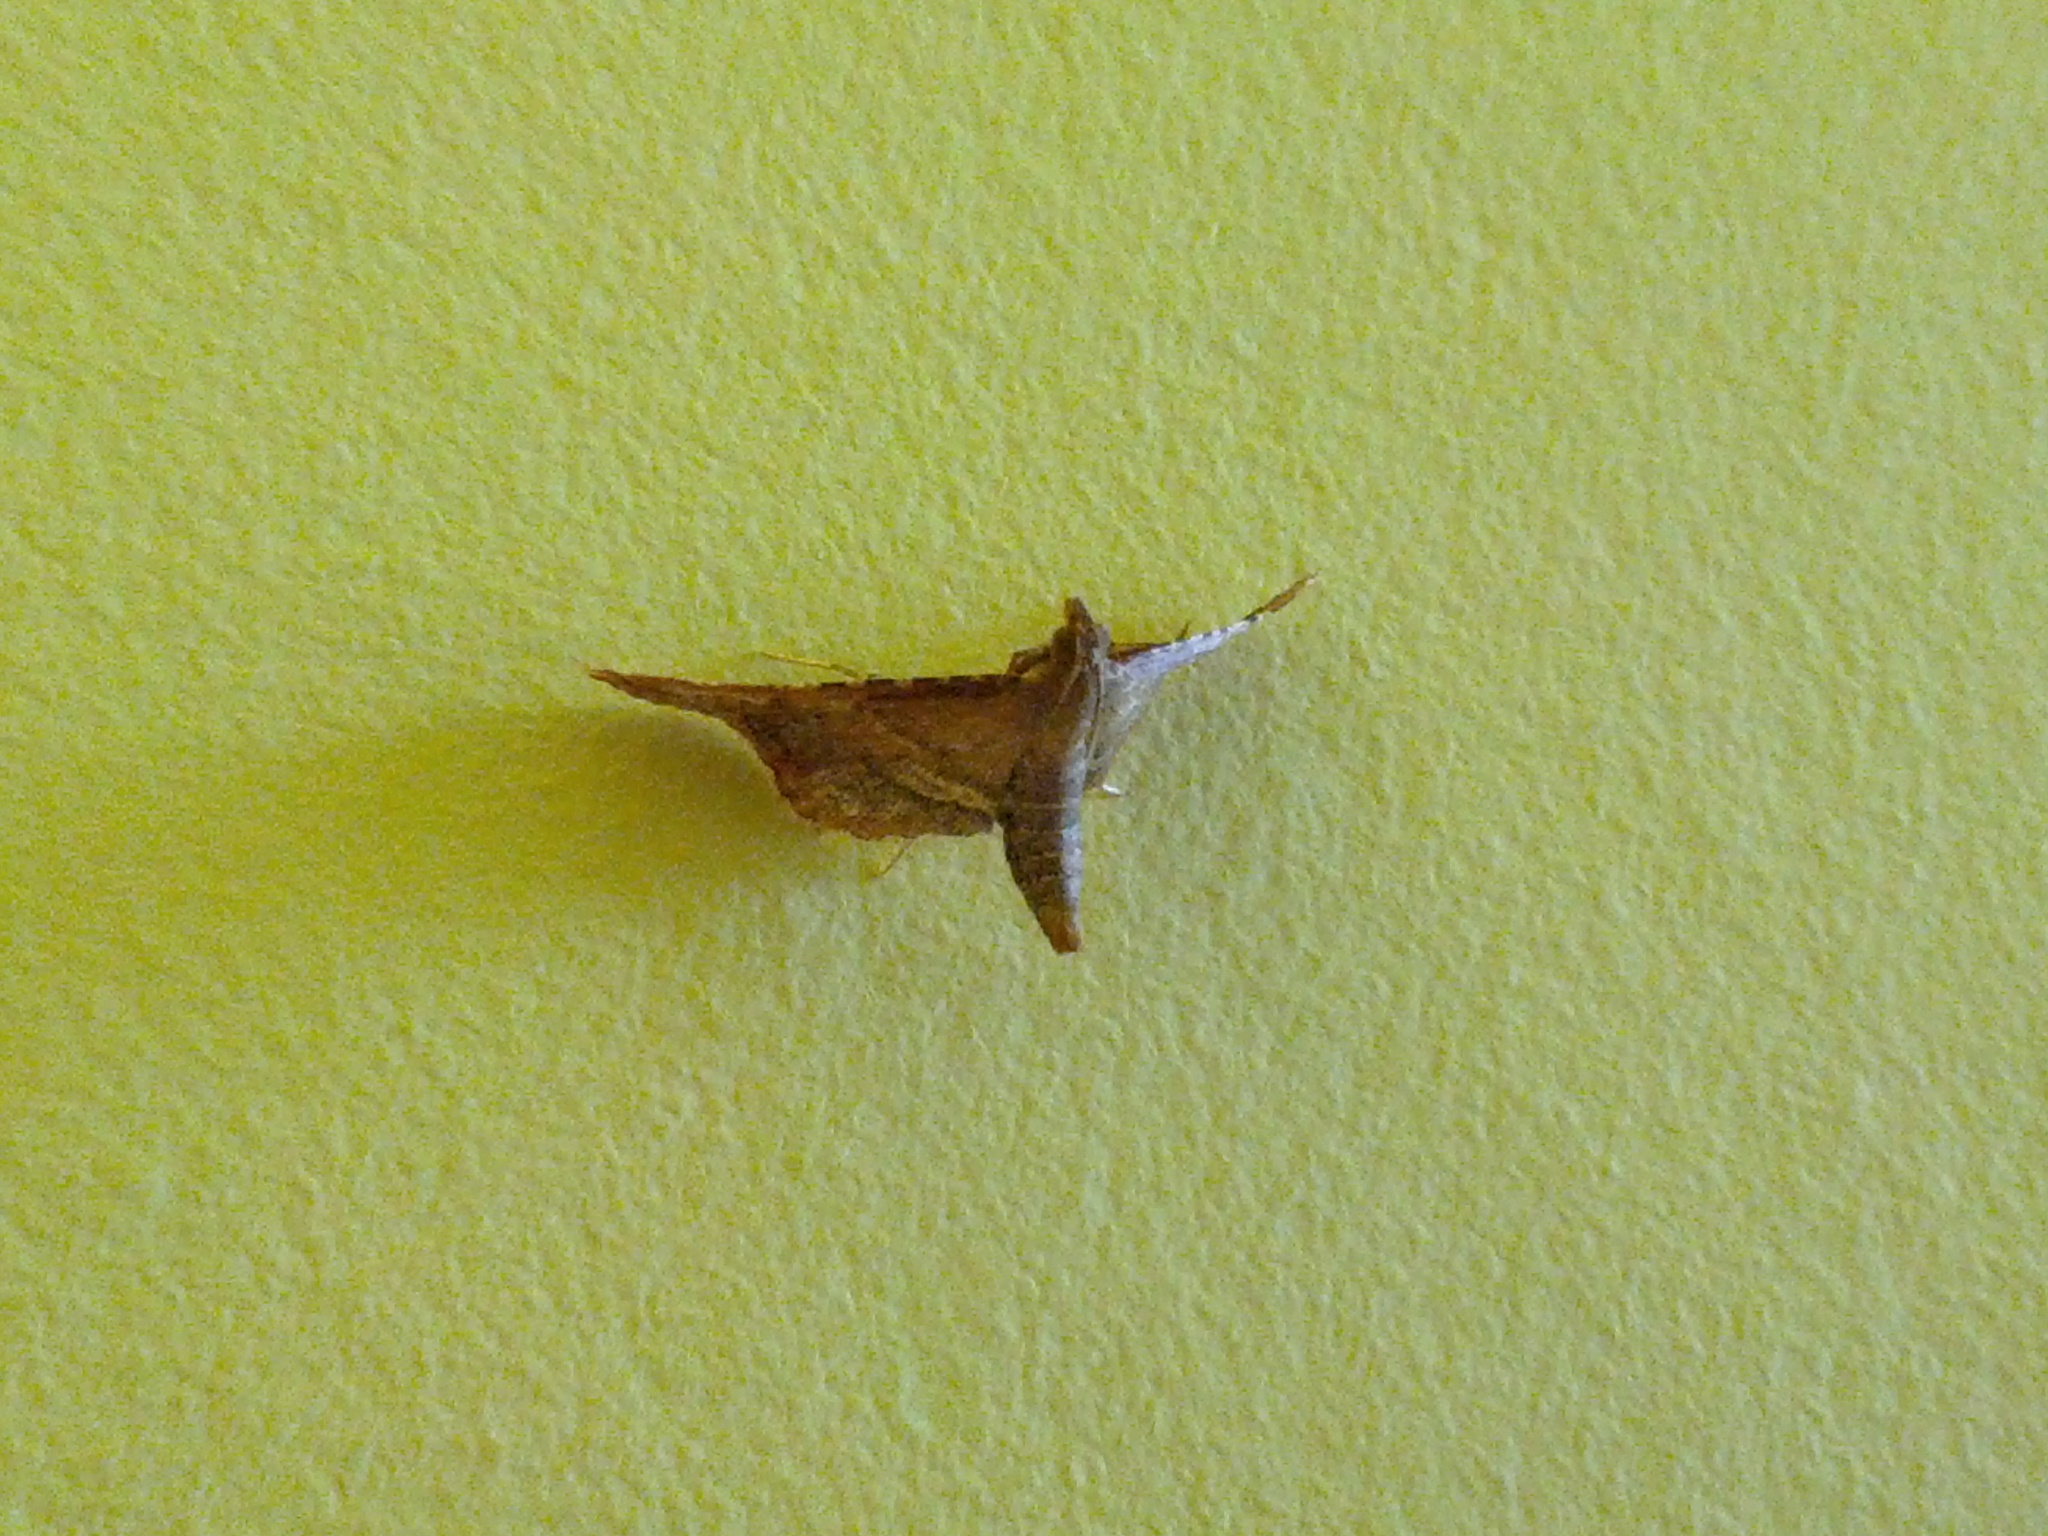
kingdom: Animalia
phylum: Arthropoda
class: Insecta
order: Lepidoptera
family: Pyralidae
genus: Endotricha
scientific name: Endotricha flammealis
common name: Rosy tabby
